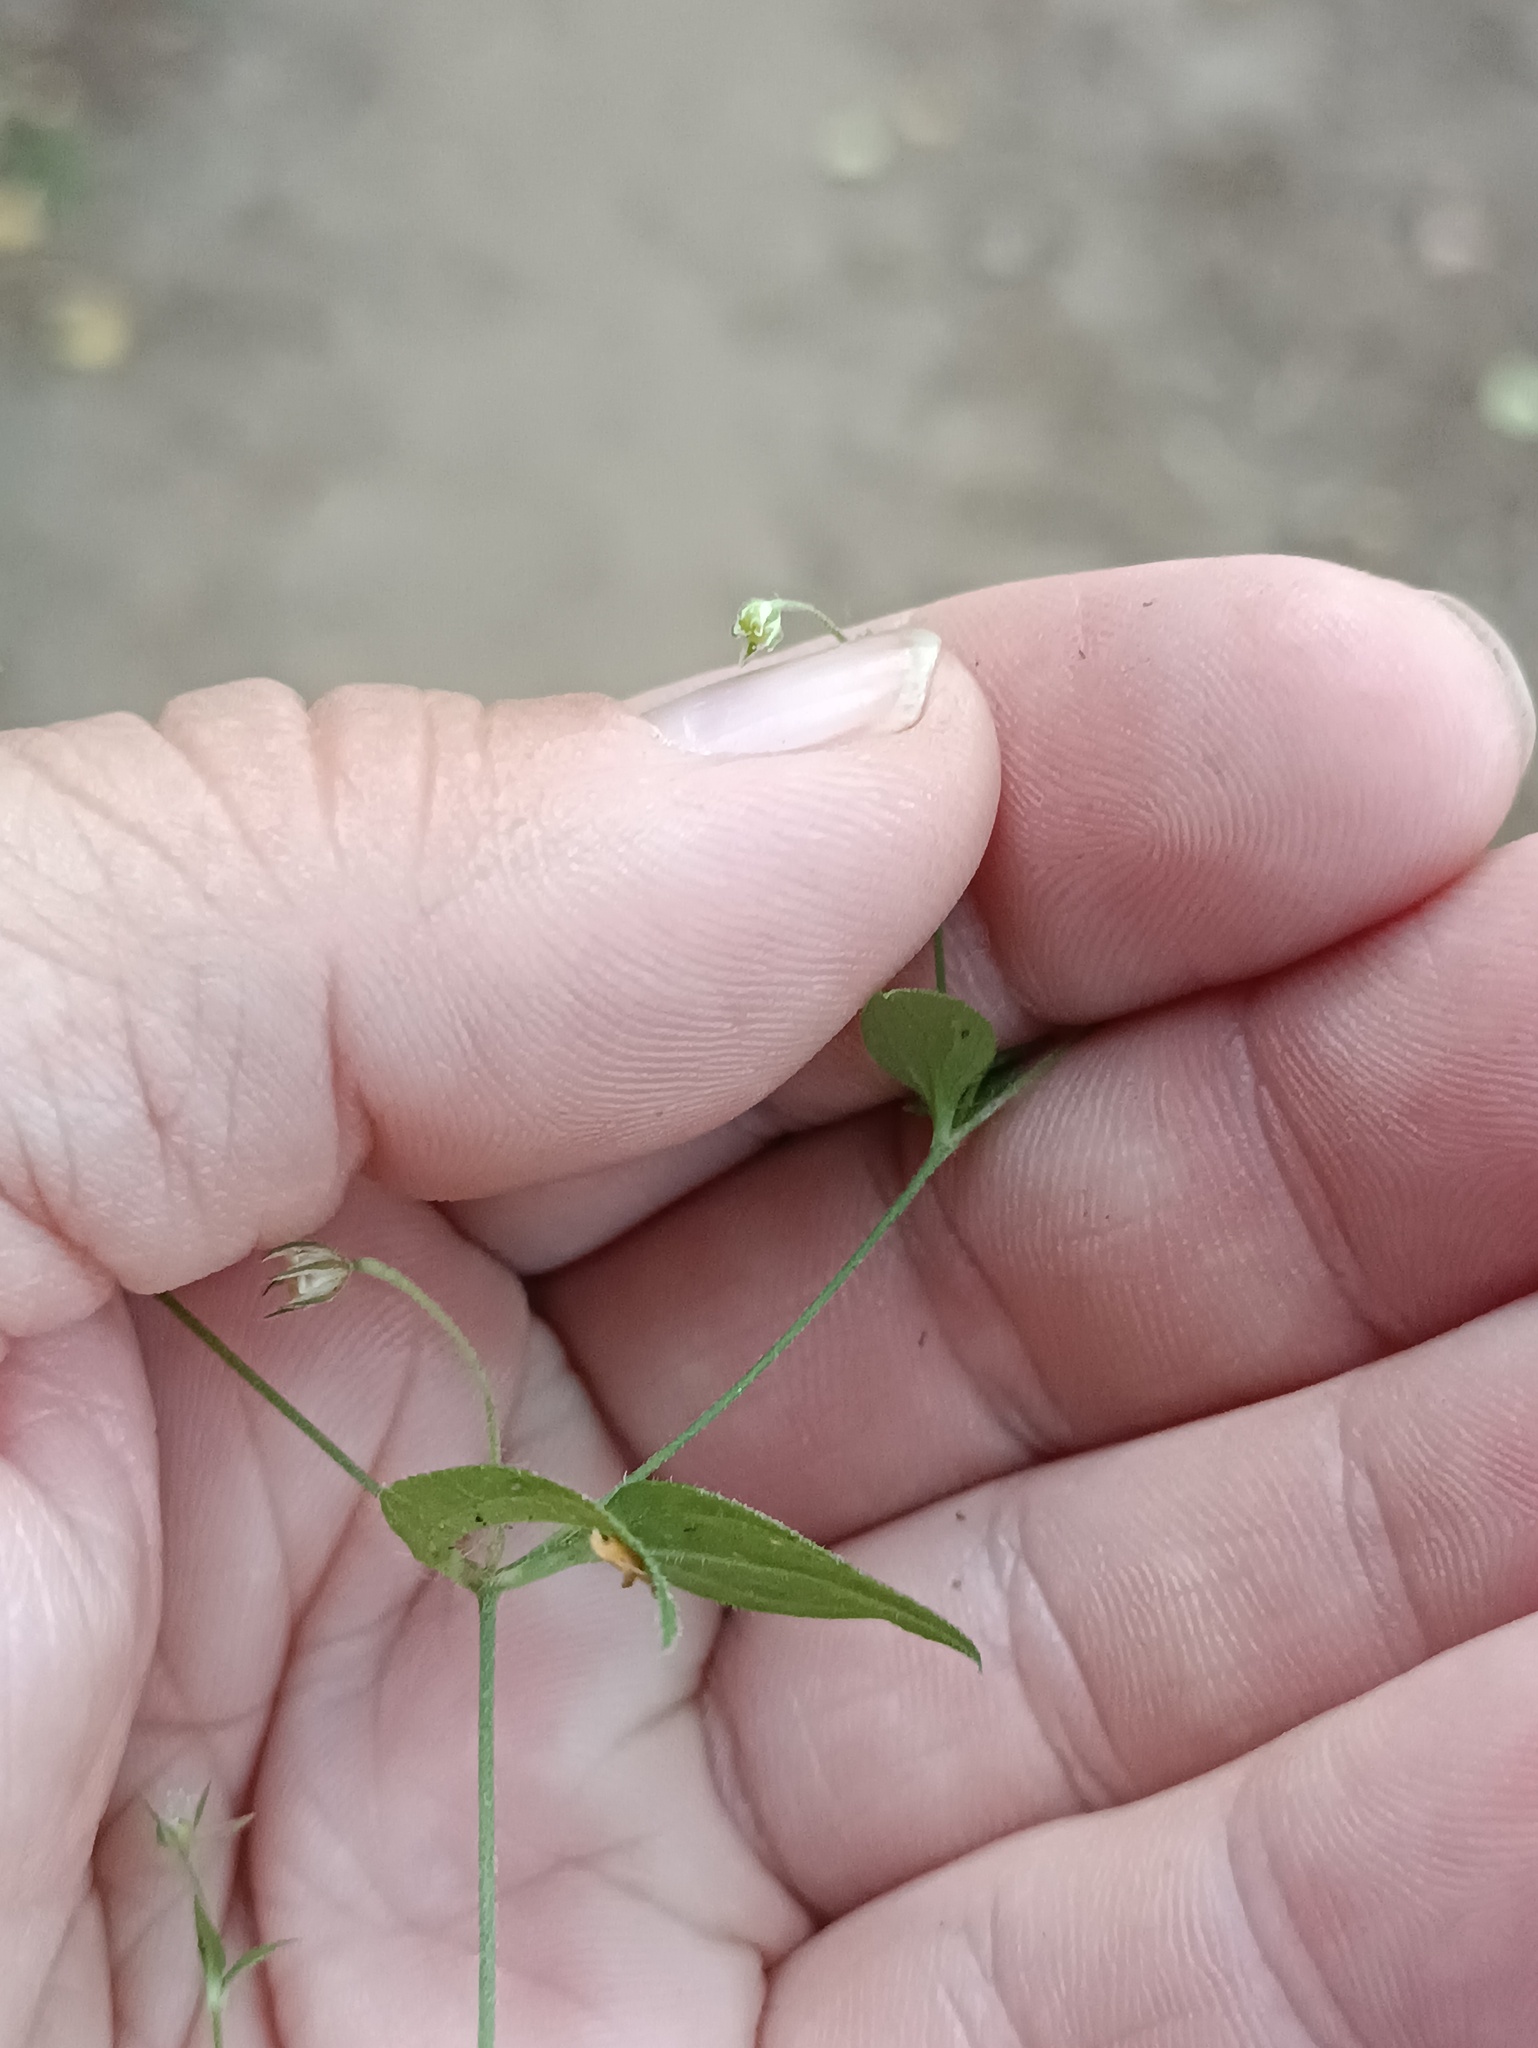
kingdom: Plantae
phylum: Tracheophyta
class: Magnoliopsida
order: Caryophyllales
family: Caryophyllaceae
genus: Moehringia
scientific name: Moehringia trinervia
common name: Three-nerved sandwort
